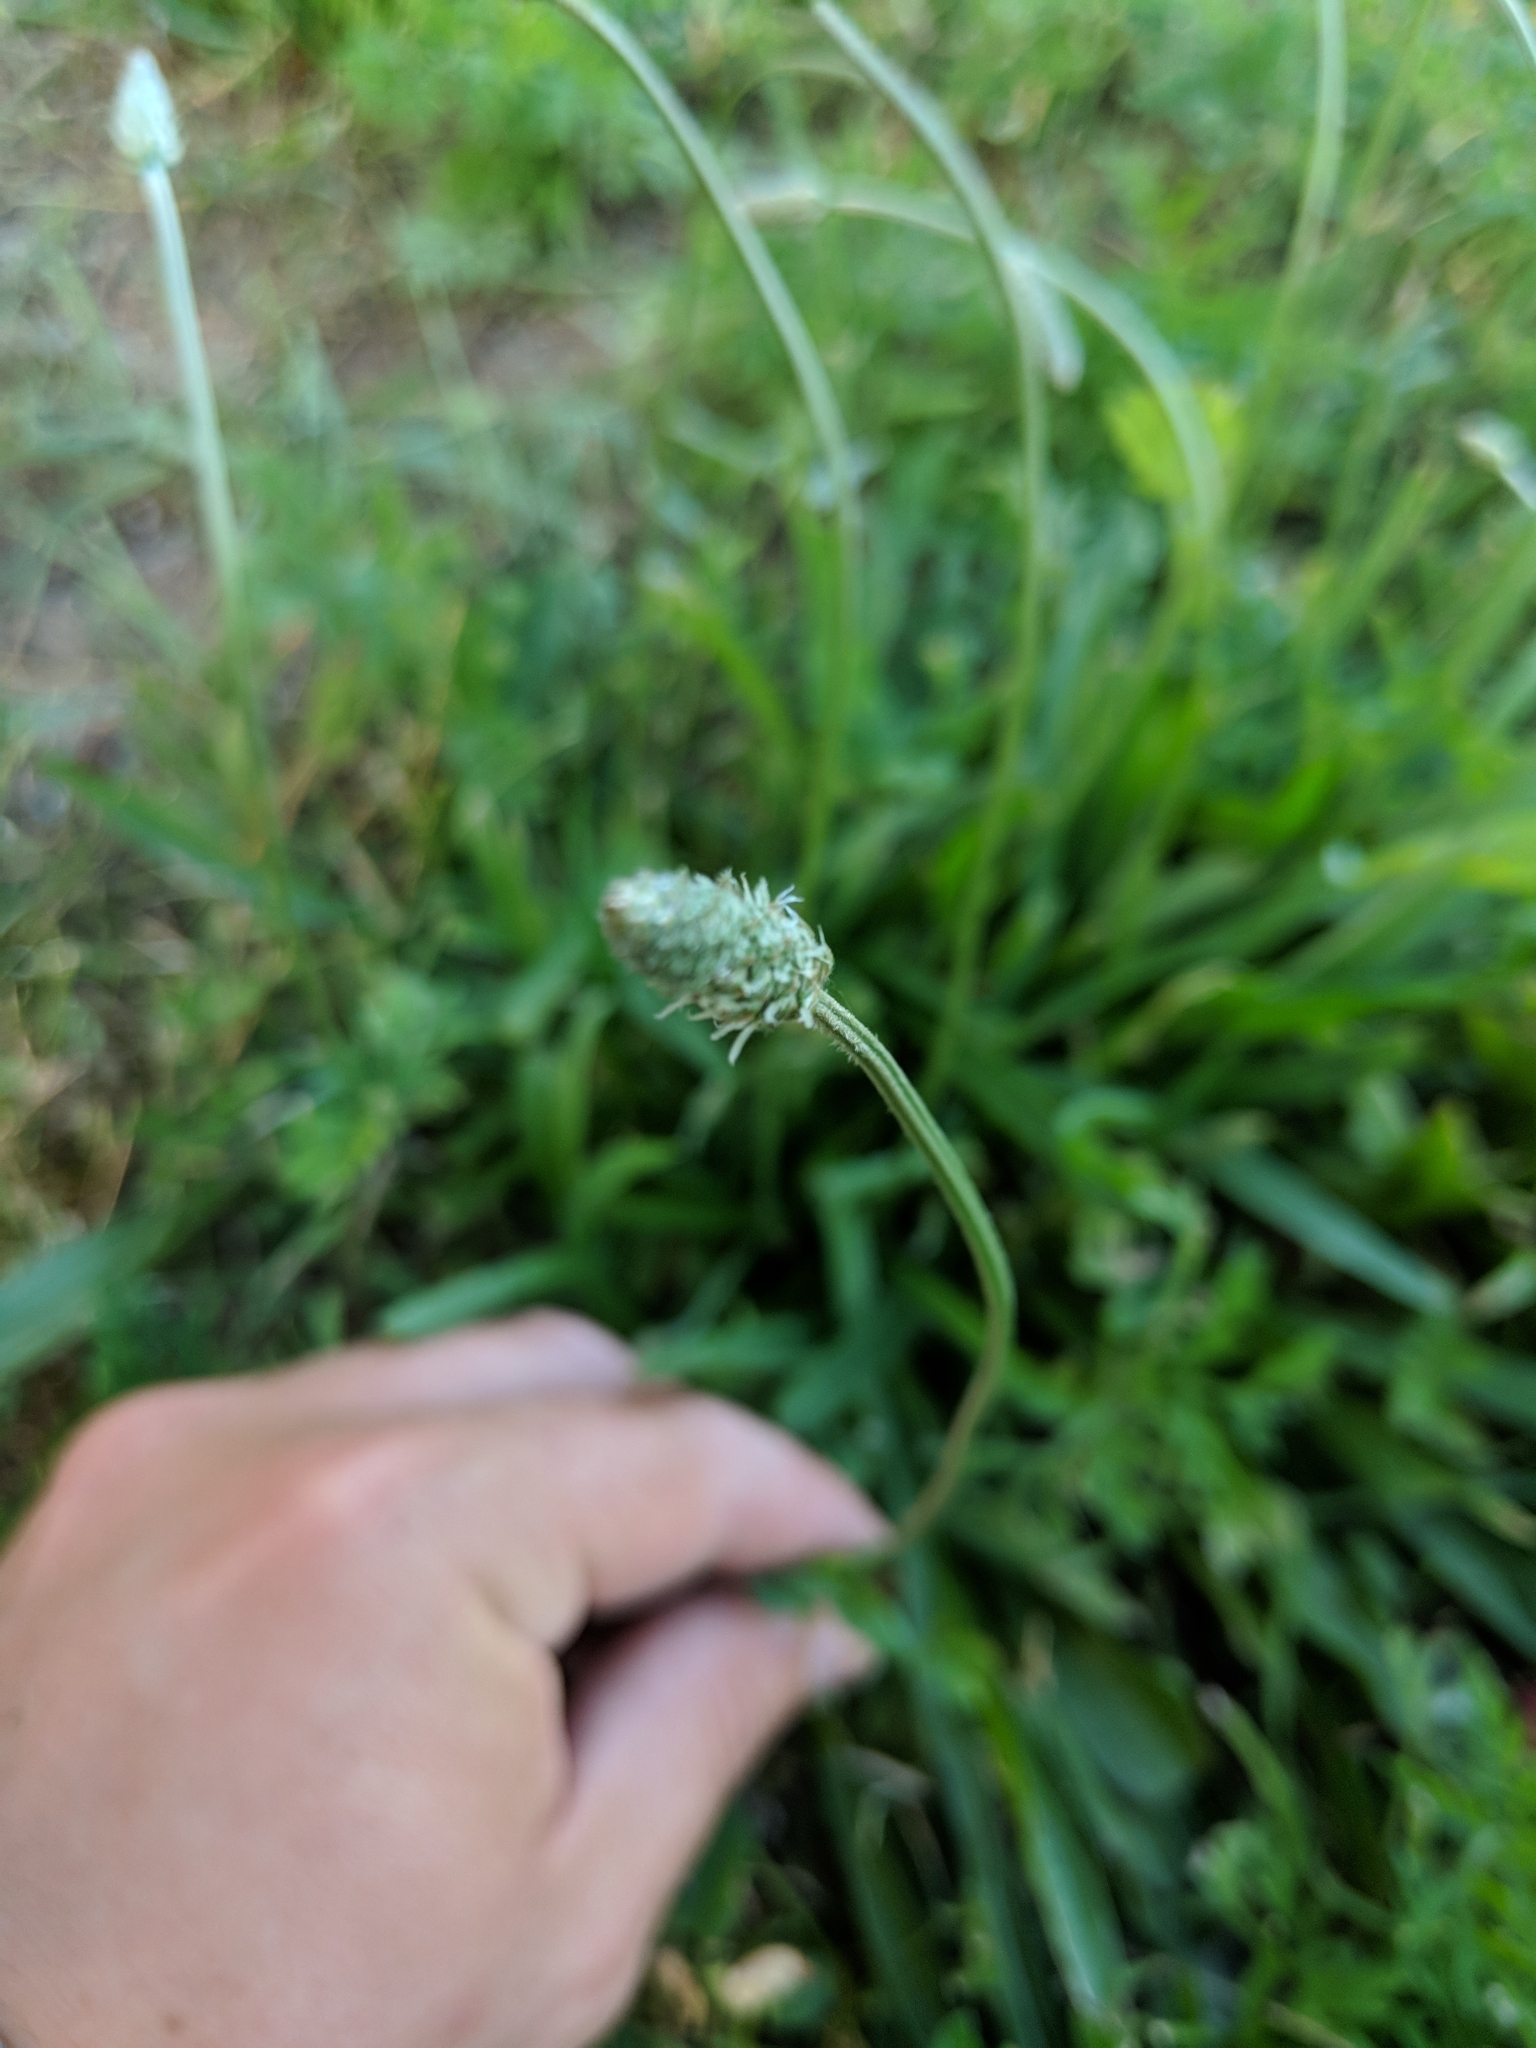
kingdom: Plantae
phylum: Tracheophyta
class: Magnoliopsida
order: Lamiales
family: Plantaginaceae
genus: Plantago
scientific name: Plantago lanceolata
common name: Ribwort plantain
